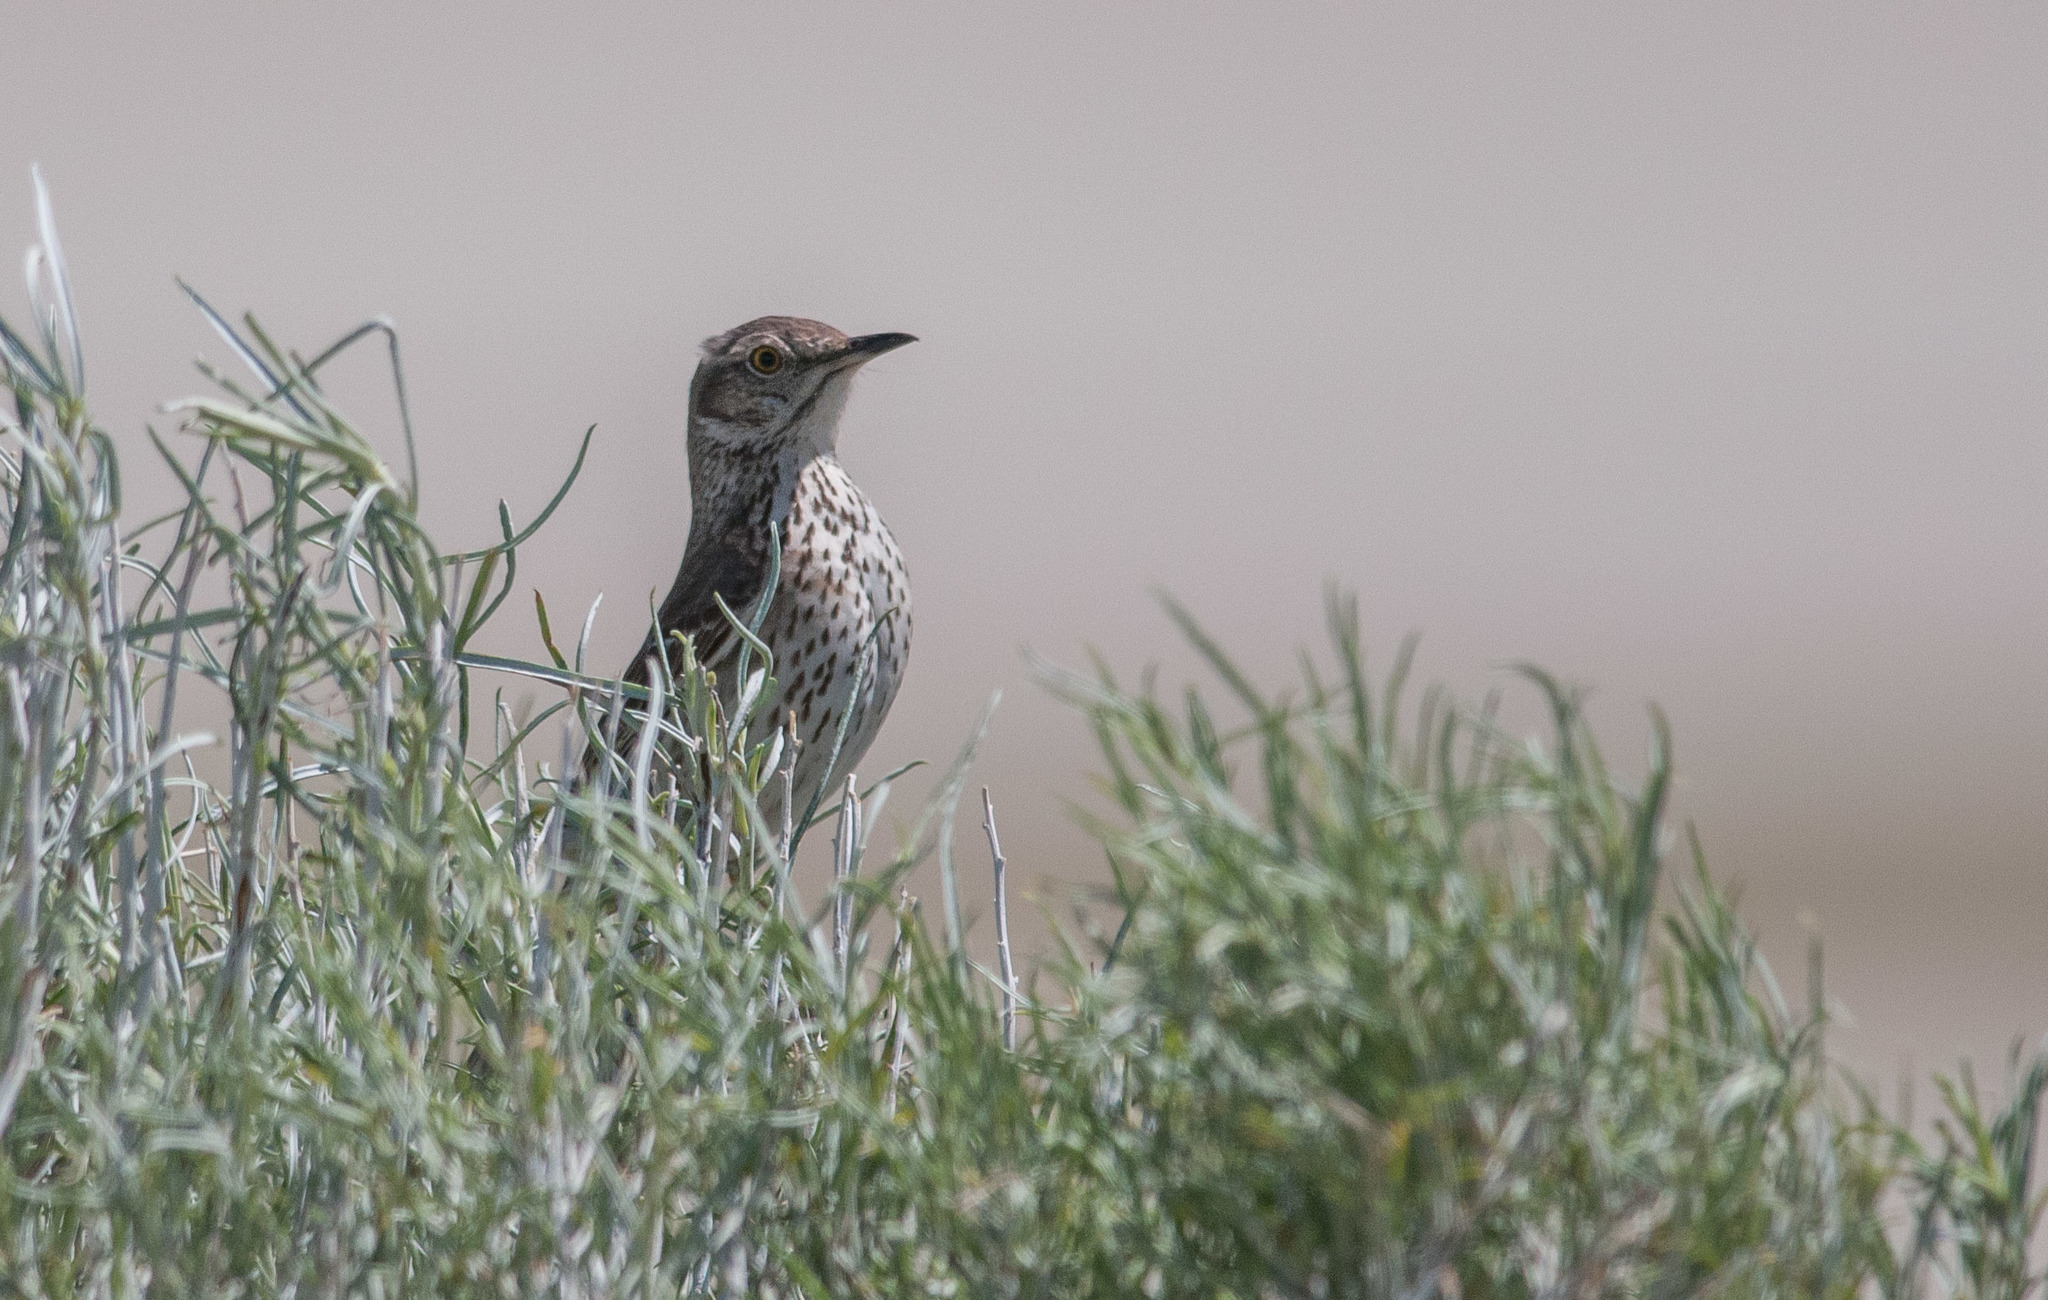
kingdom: Animalia
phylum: Chordata
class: Aves
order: Passeriformes
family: Mimidae
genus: Oreoscoptes
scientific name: Oreoscoptes montanus
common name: Sage thrasher
